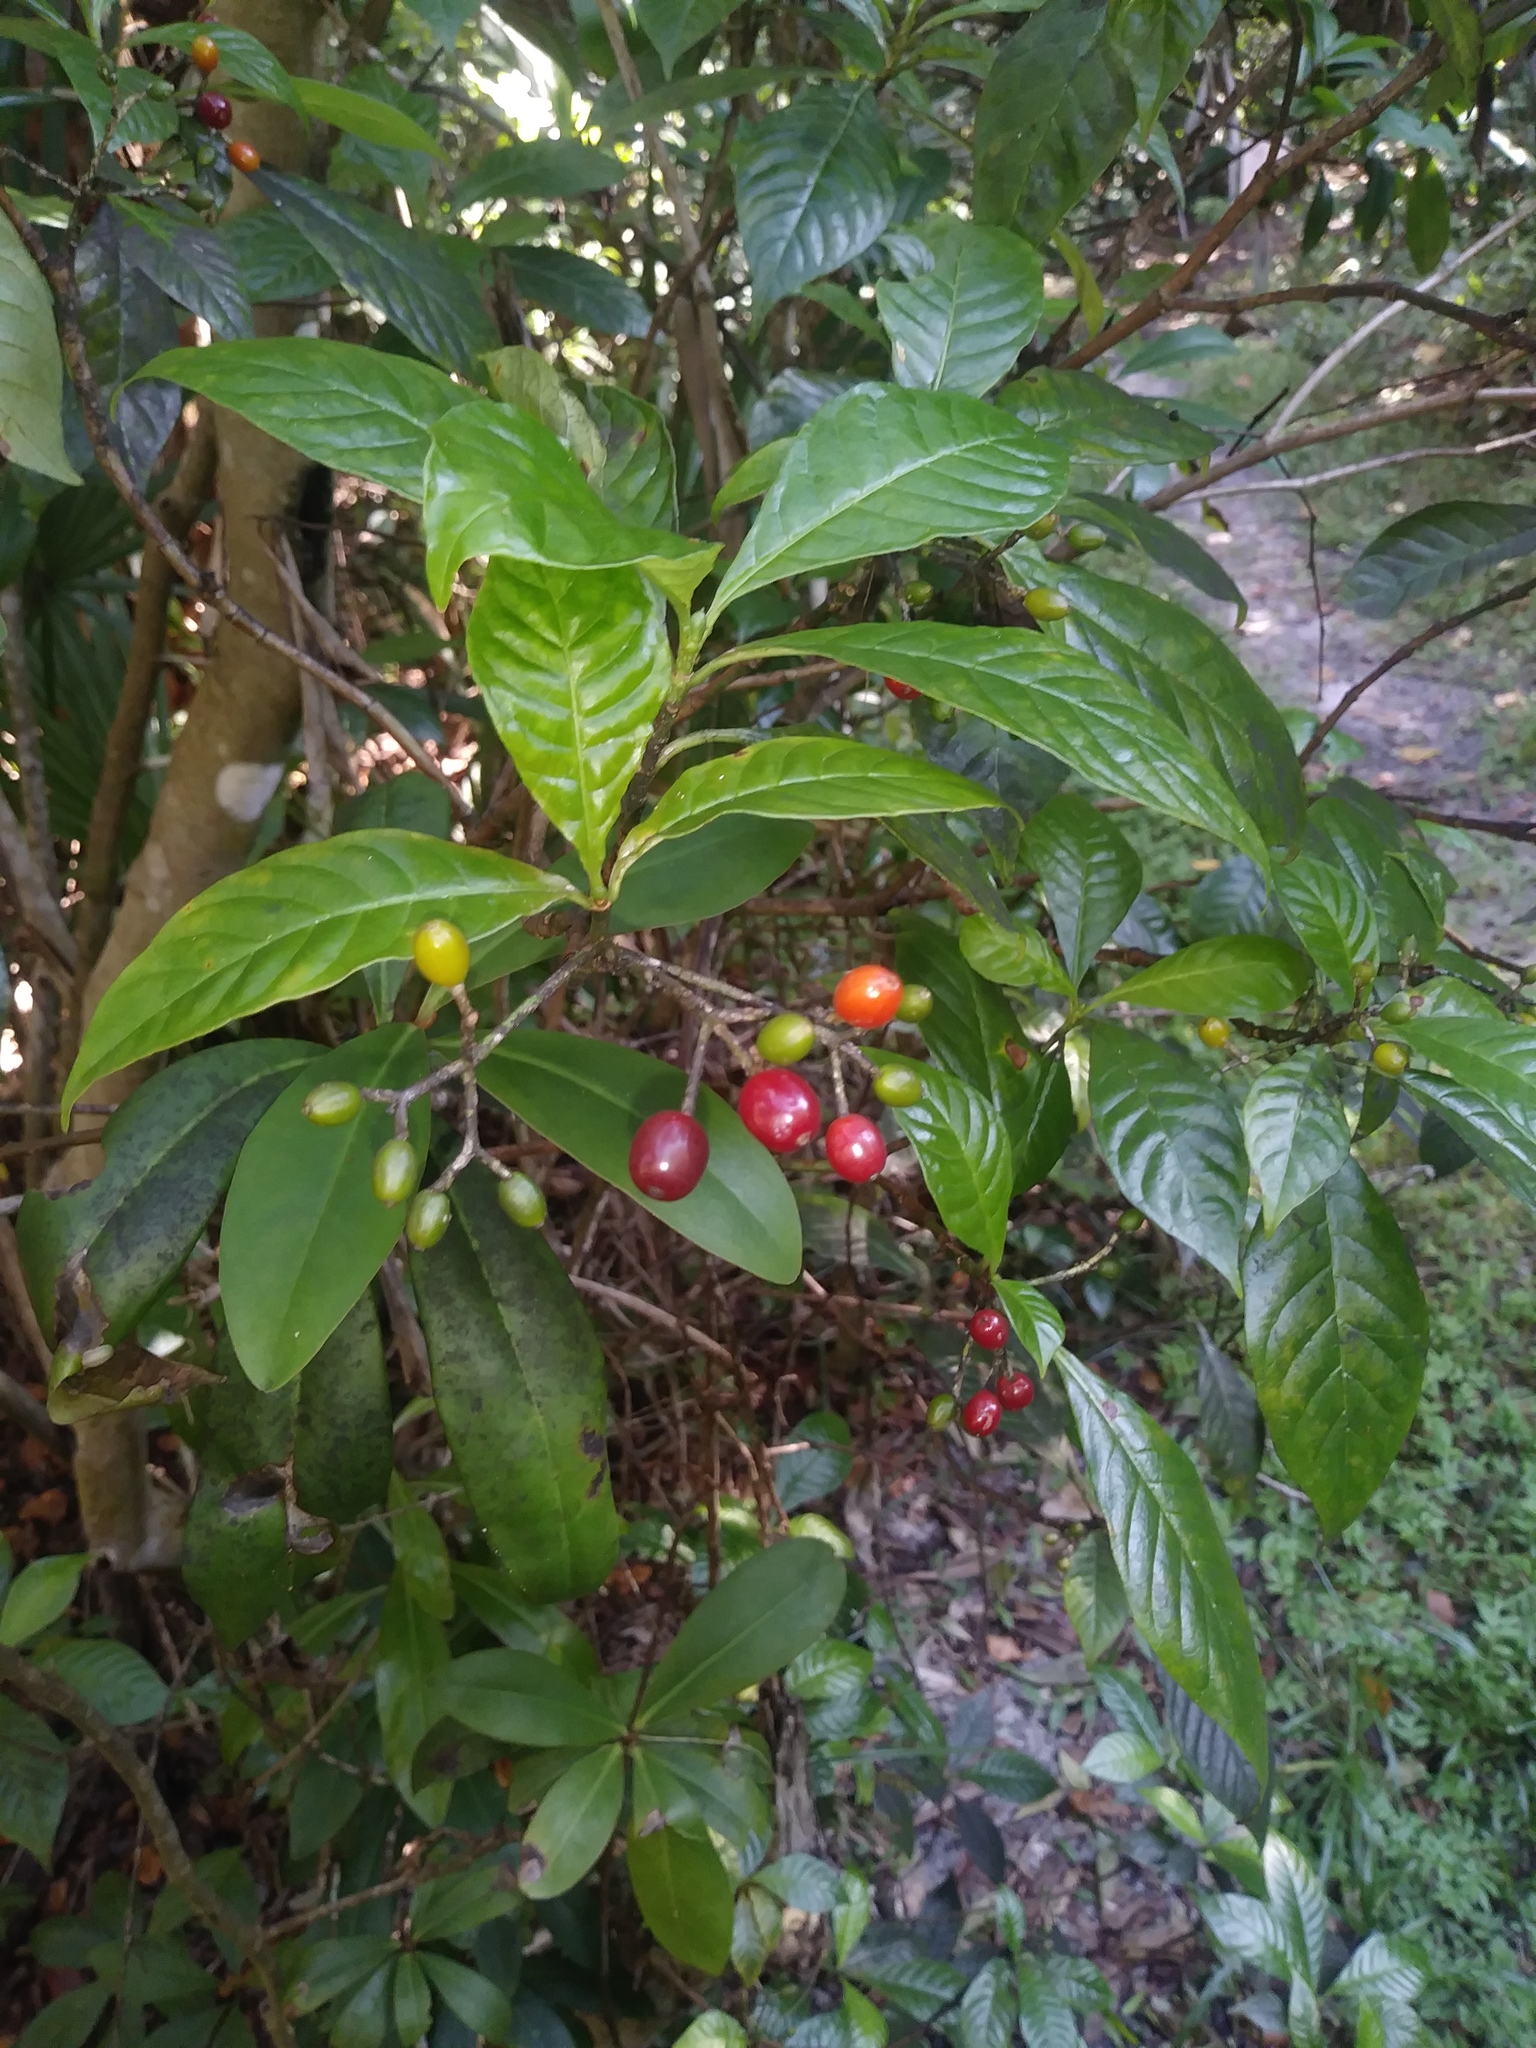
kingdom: Plantae
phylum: Tracheophyta
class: Magnoliopsida
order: Gentianales
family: Rubiaceae
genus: Psychotria
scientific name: Psychotria nervosa
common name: Bastard cankerberry
